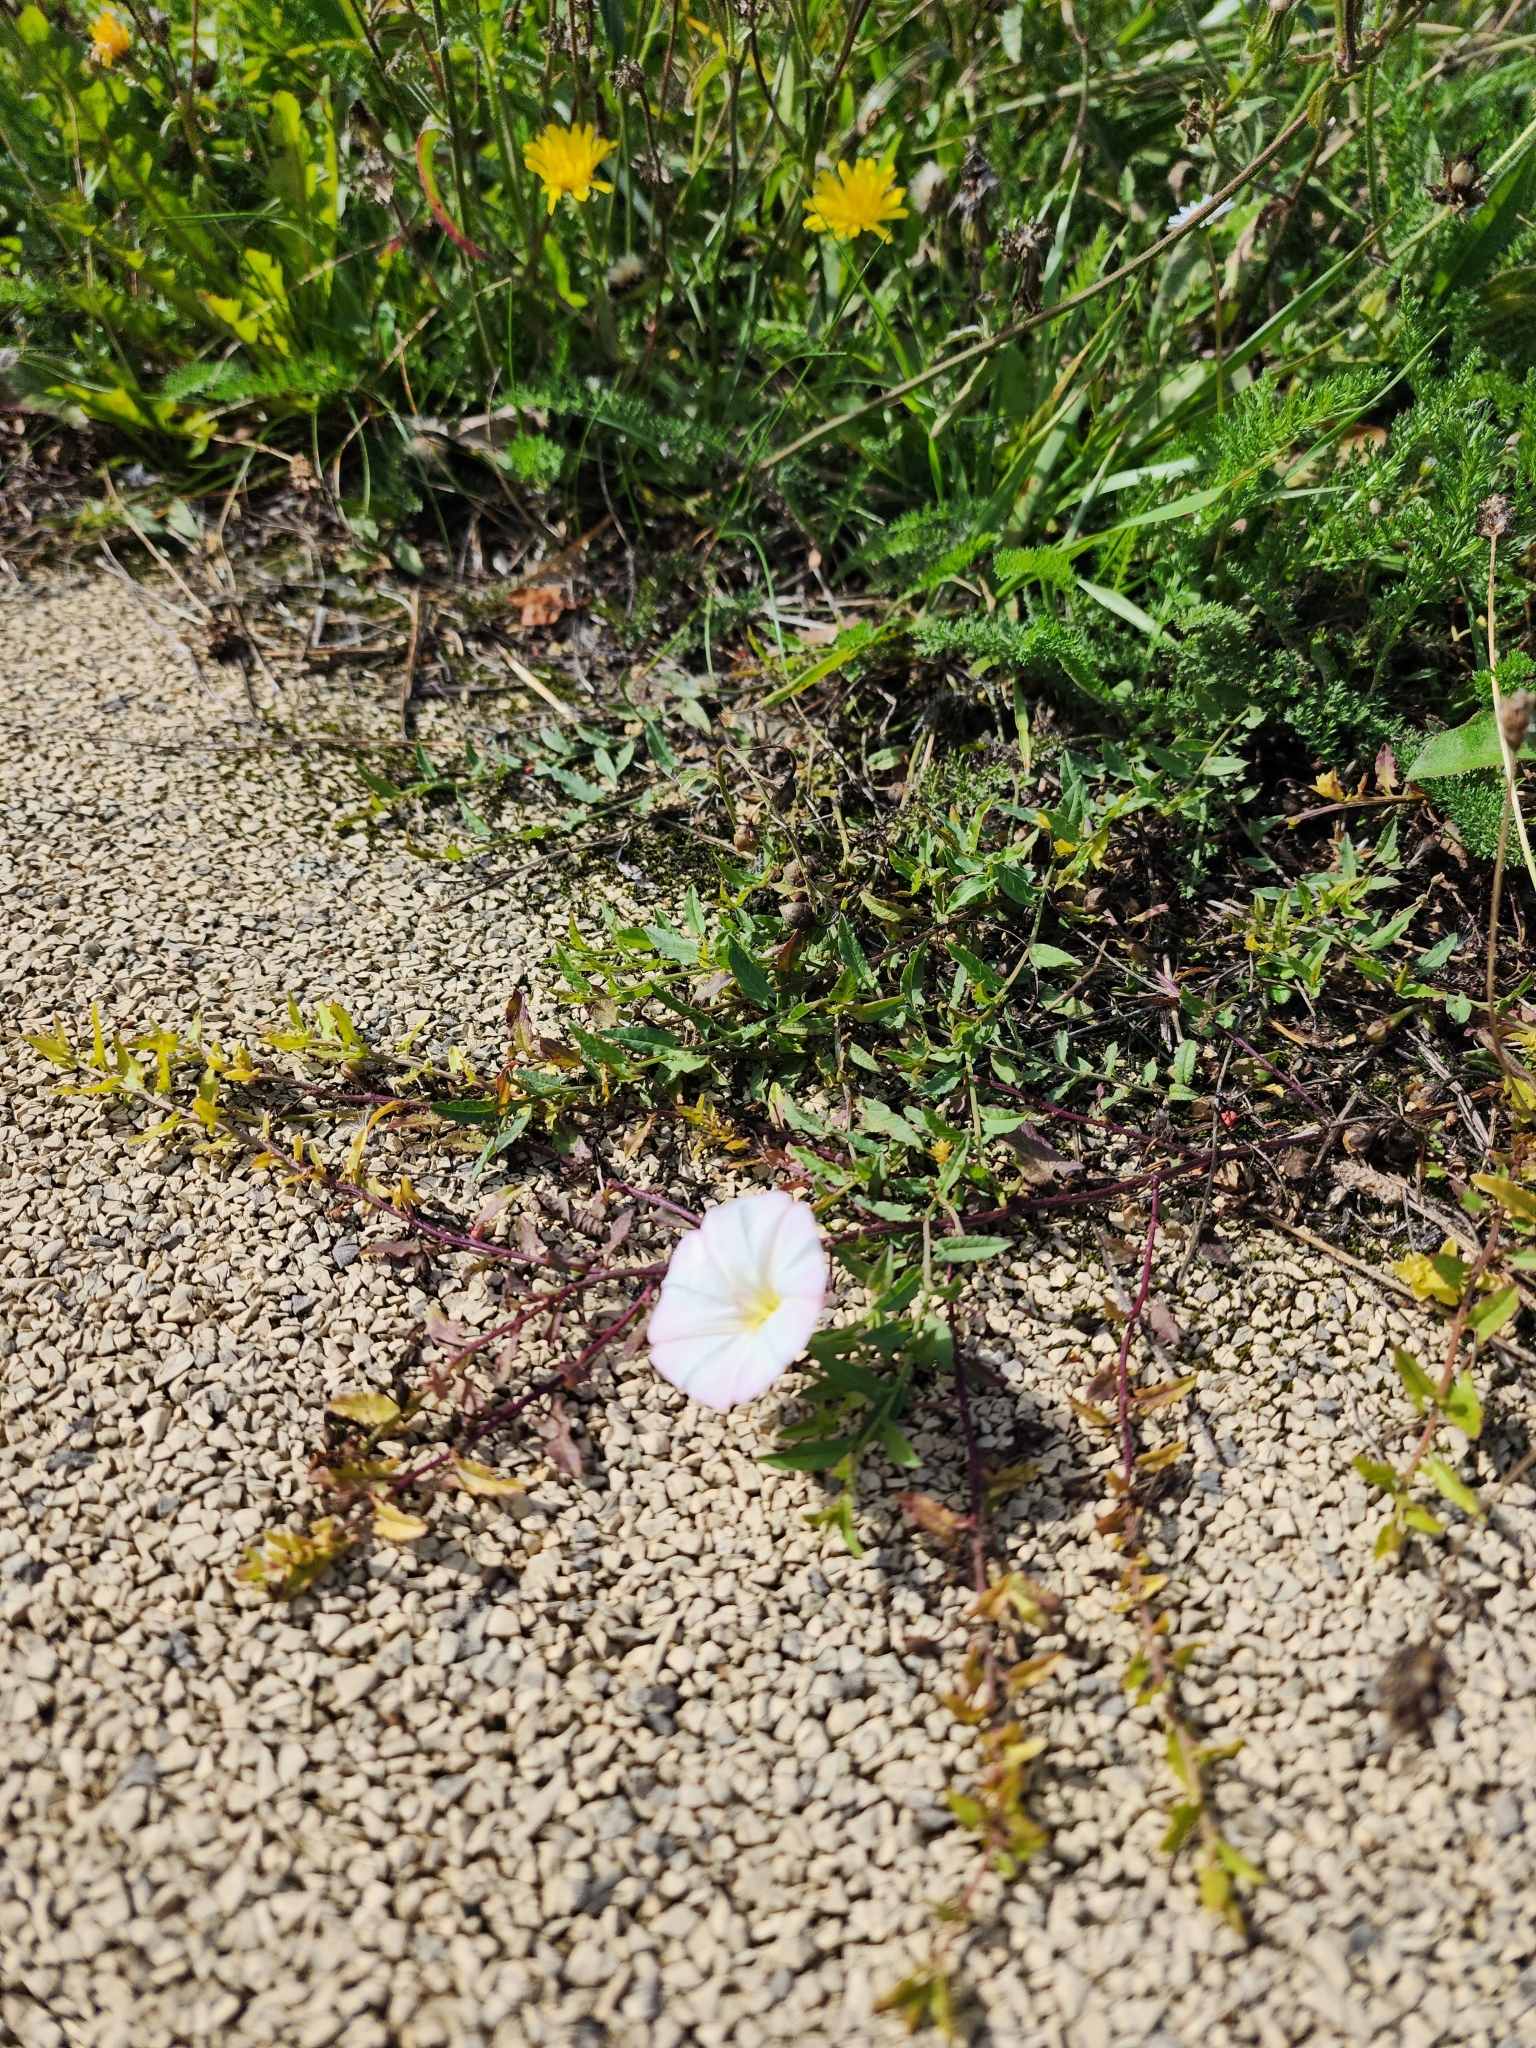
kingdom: Plantae
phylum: Tracheophyta
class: Magnoliopsida
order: Solanales
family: Convolvulaceae
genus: Convolvulus
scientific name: Convolvulus arvensis
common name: Field bindweed
